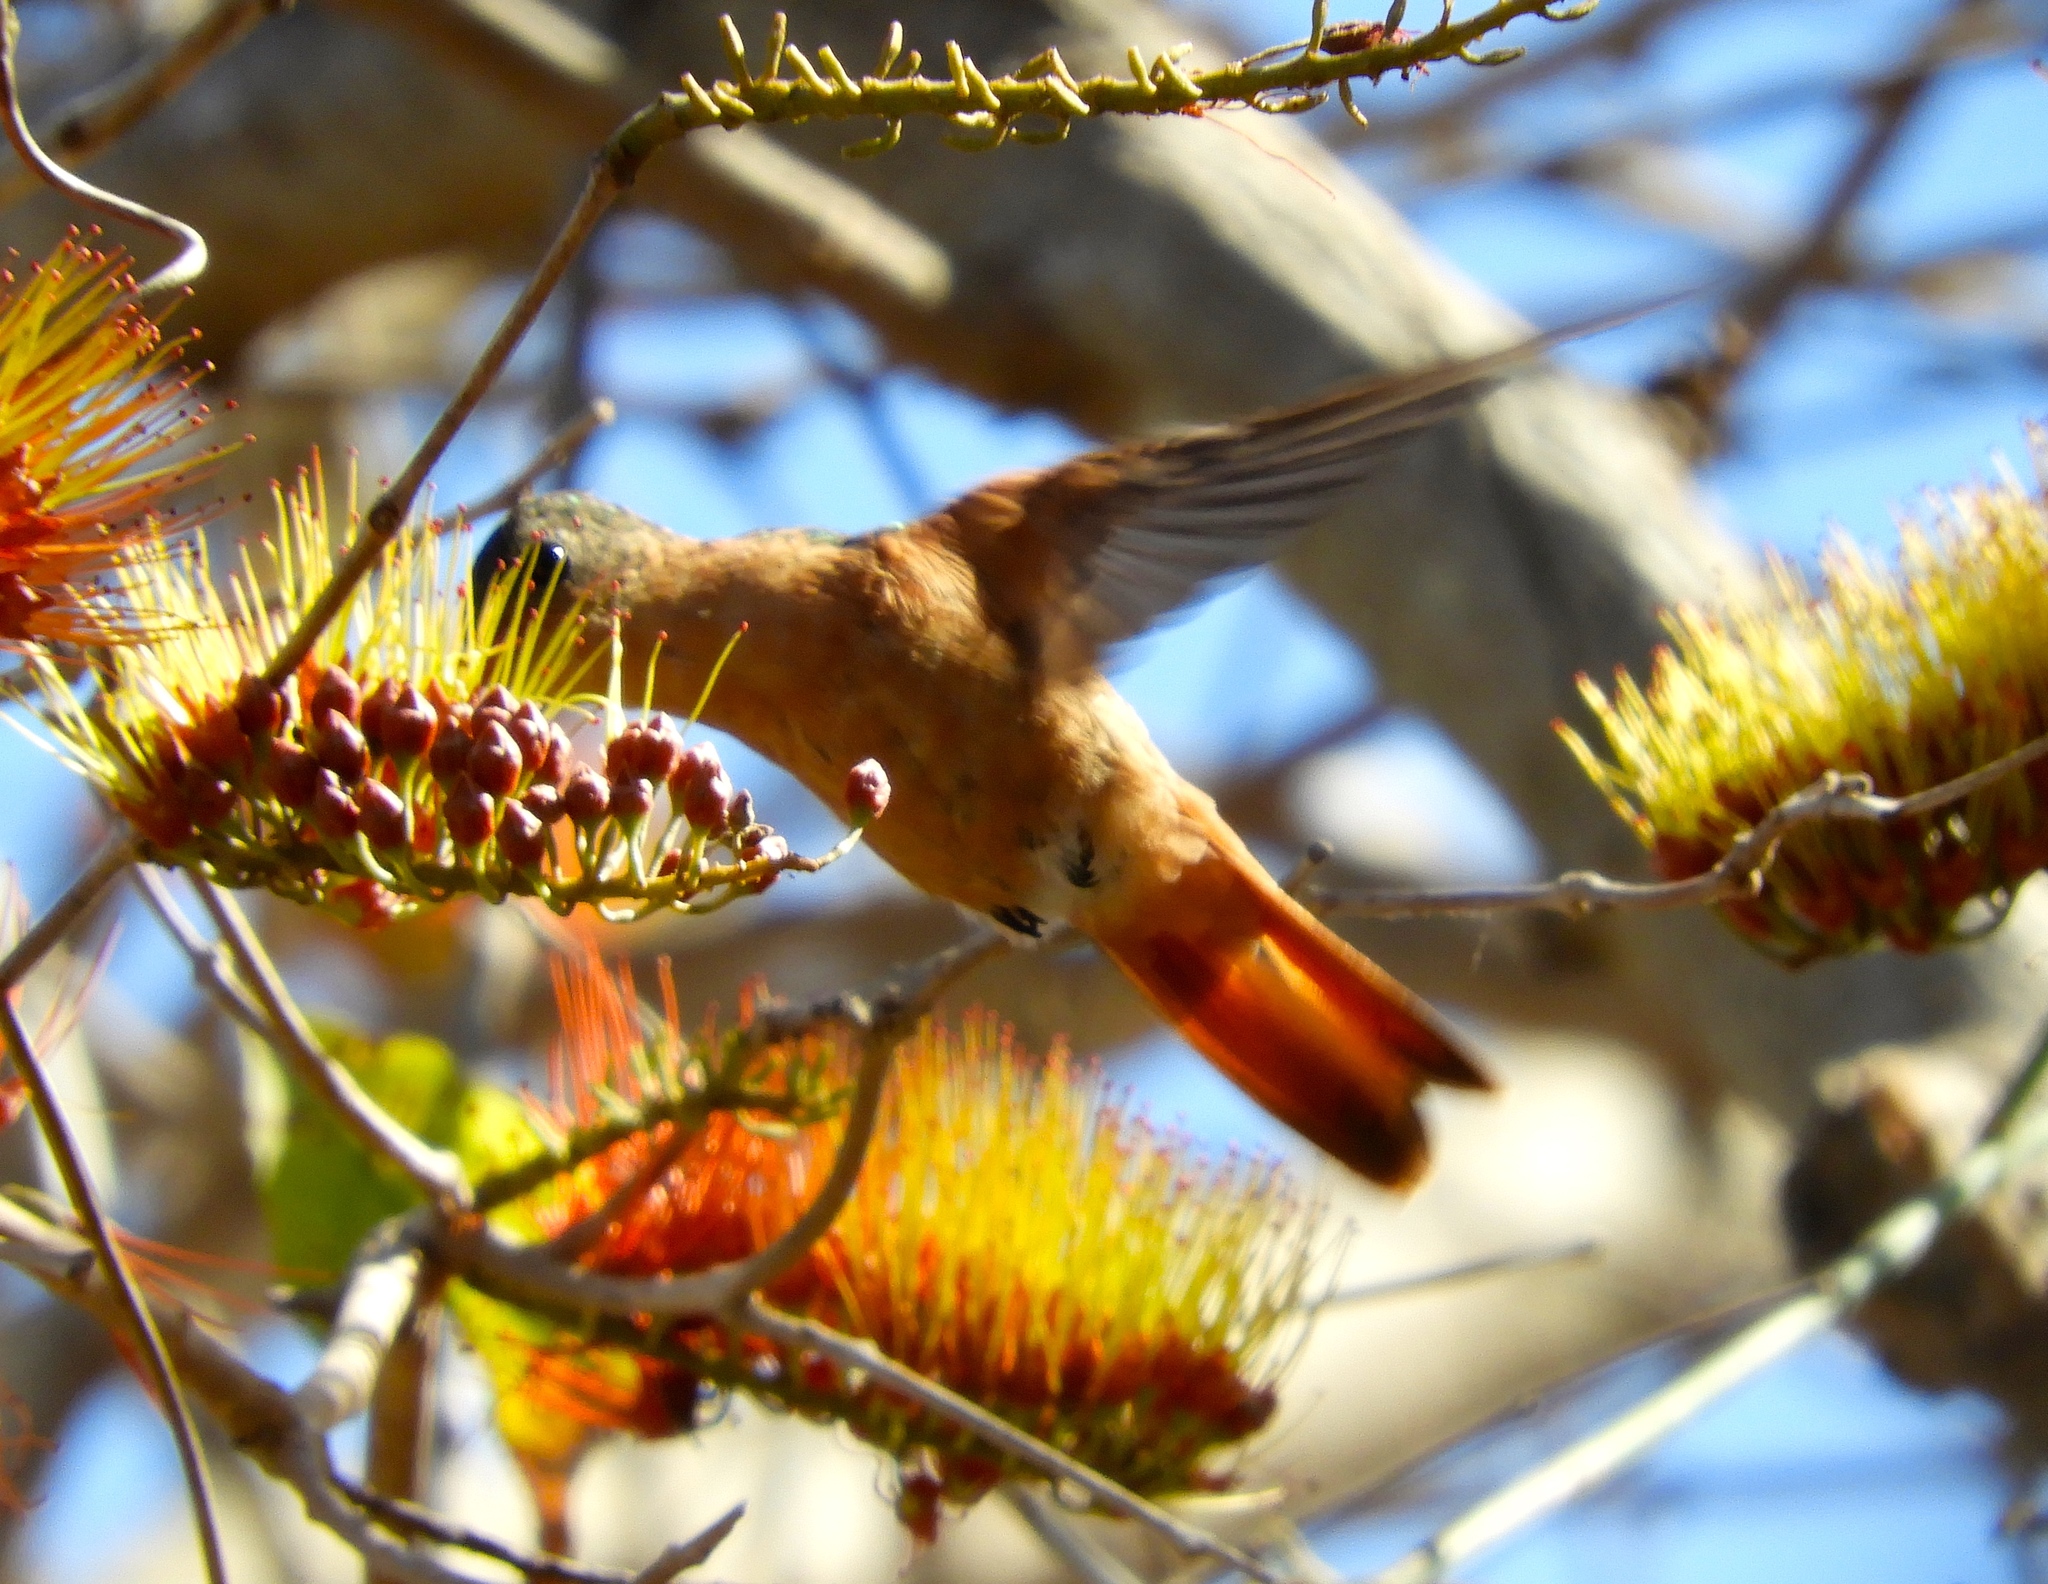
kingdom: Animalia
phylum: Chordata
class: Aves
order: Apodiformes
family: Trochilidae
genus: Amazilia
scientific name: Amazilia rutila
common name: Cinnamon hummingbird
